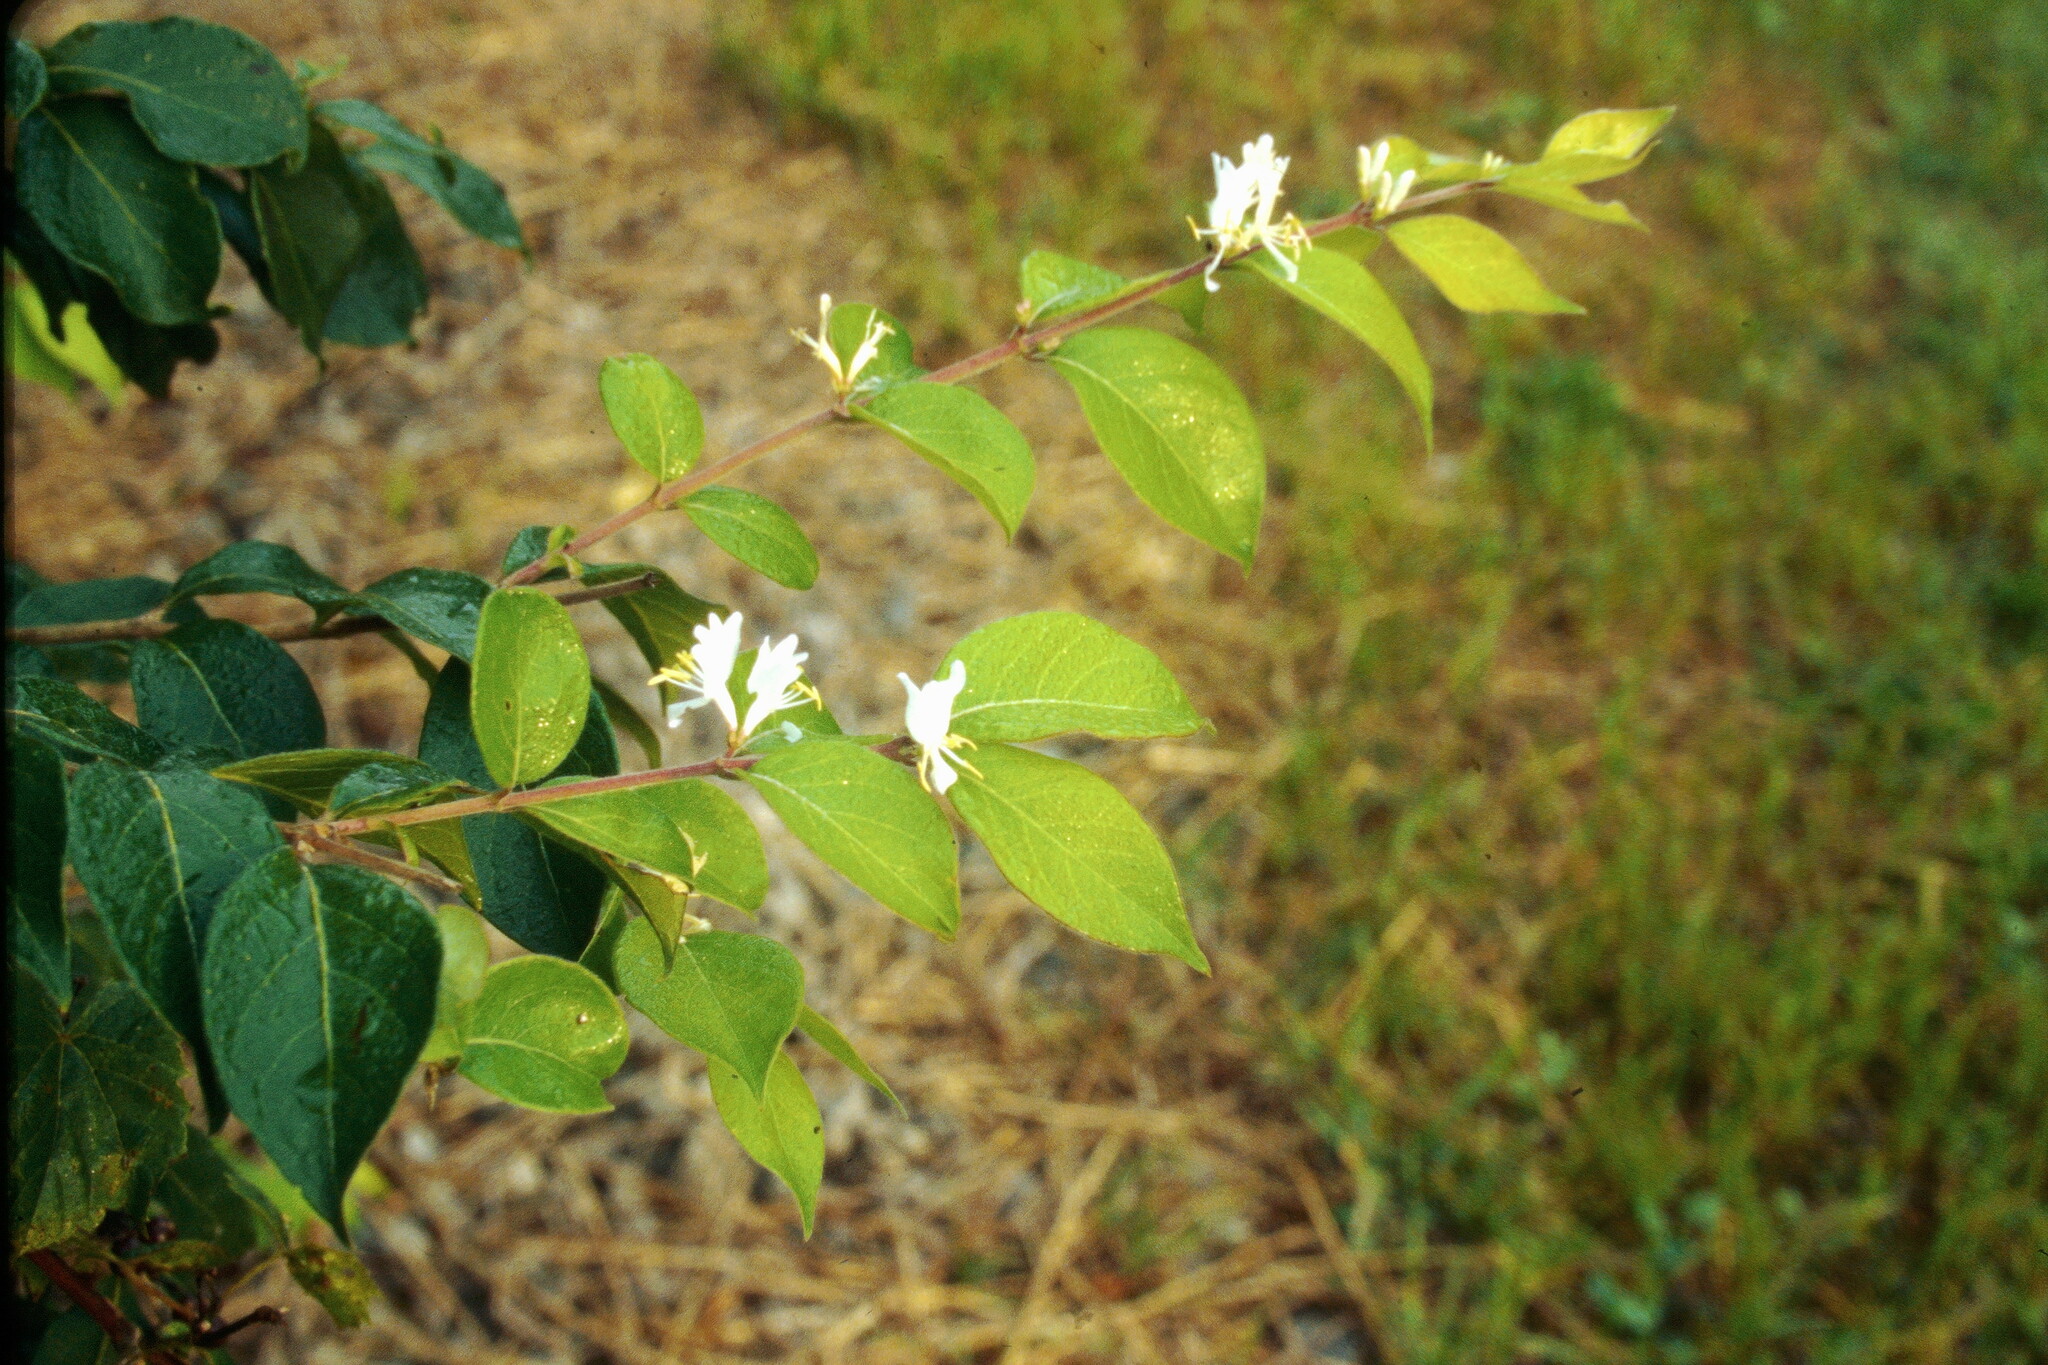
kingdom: Plantae
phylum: Tracheophyta
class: Magnoliopsida
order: Dipsacales
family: Caprifoliaceae
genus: Lonicera
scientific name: Lonicera maackii
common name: Amur honeysuckle
